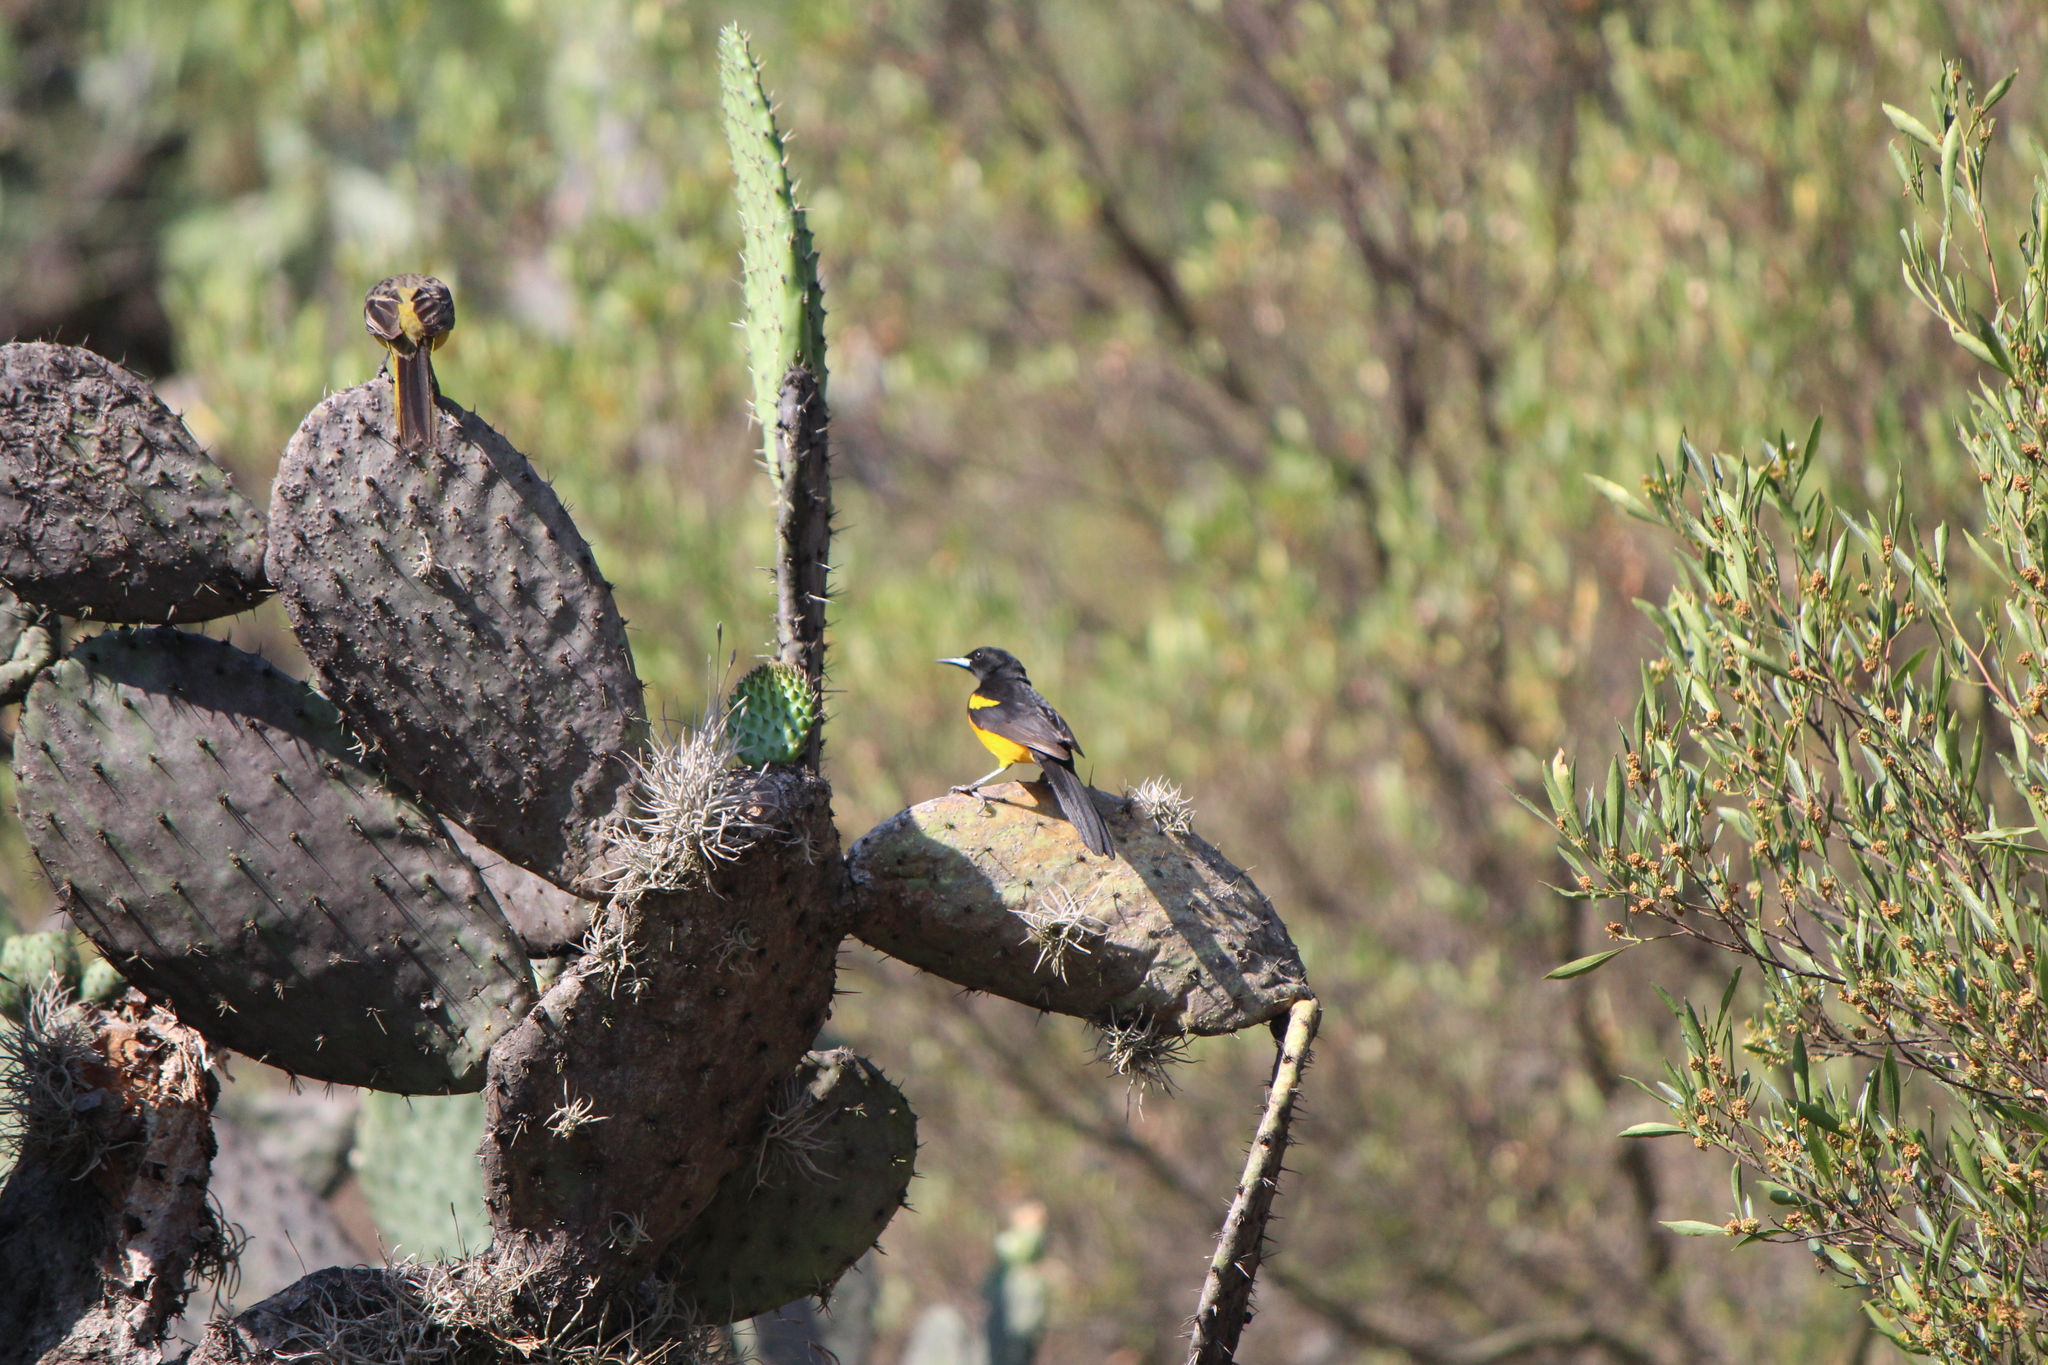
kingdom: Animalia
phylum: Chordata
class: Aves
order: Passeriformes
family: Icteridae
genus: Icterus
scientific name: Icterus wagleri
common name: Black-vented oriole
